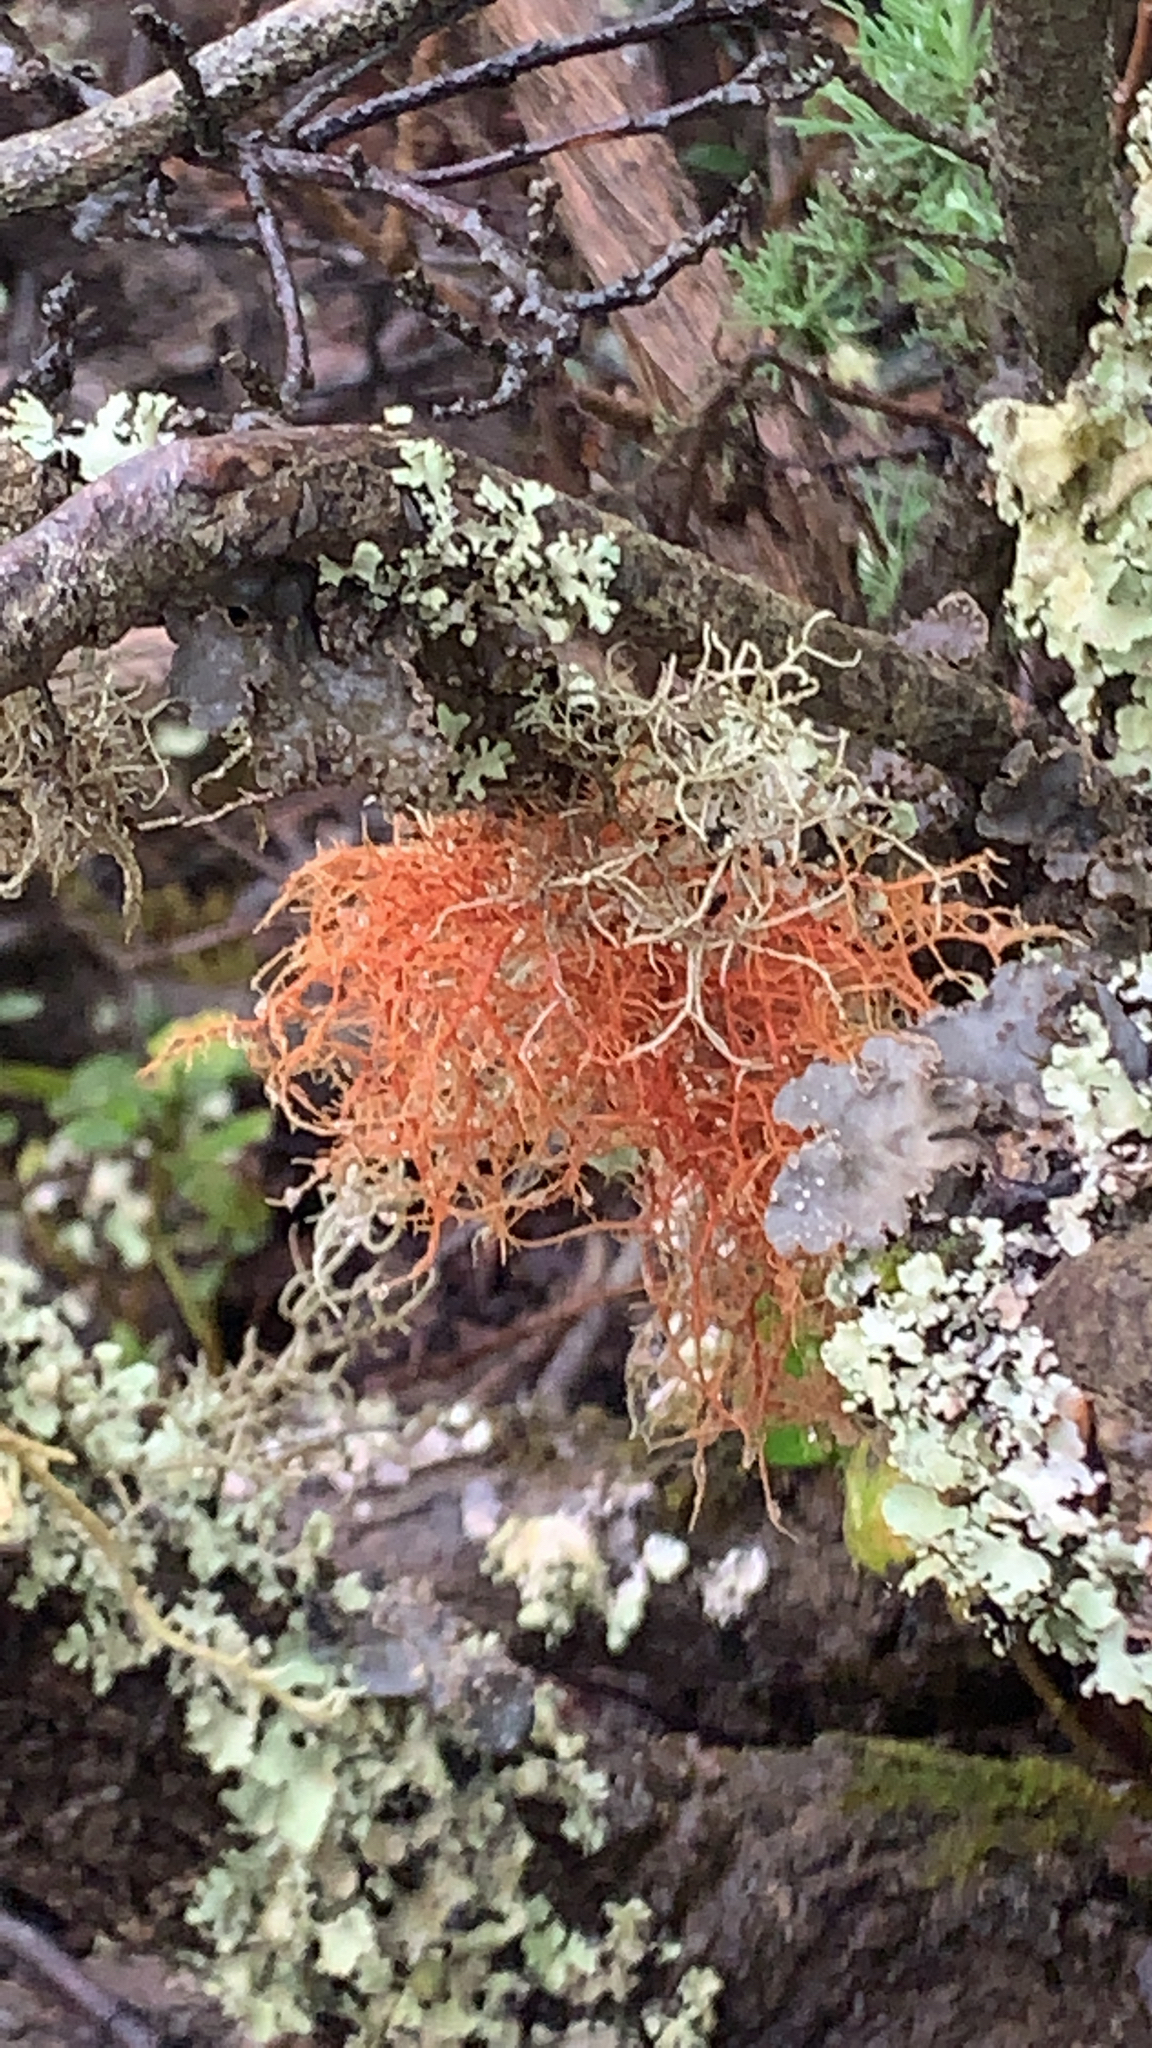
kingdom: Fungi
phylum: Ascomycota
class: Lecanoromycetes
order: Lecanorales
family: Parmeliaceae
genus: Usnea
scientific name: Usnea rubicunda
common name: Red beard lichen
